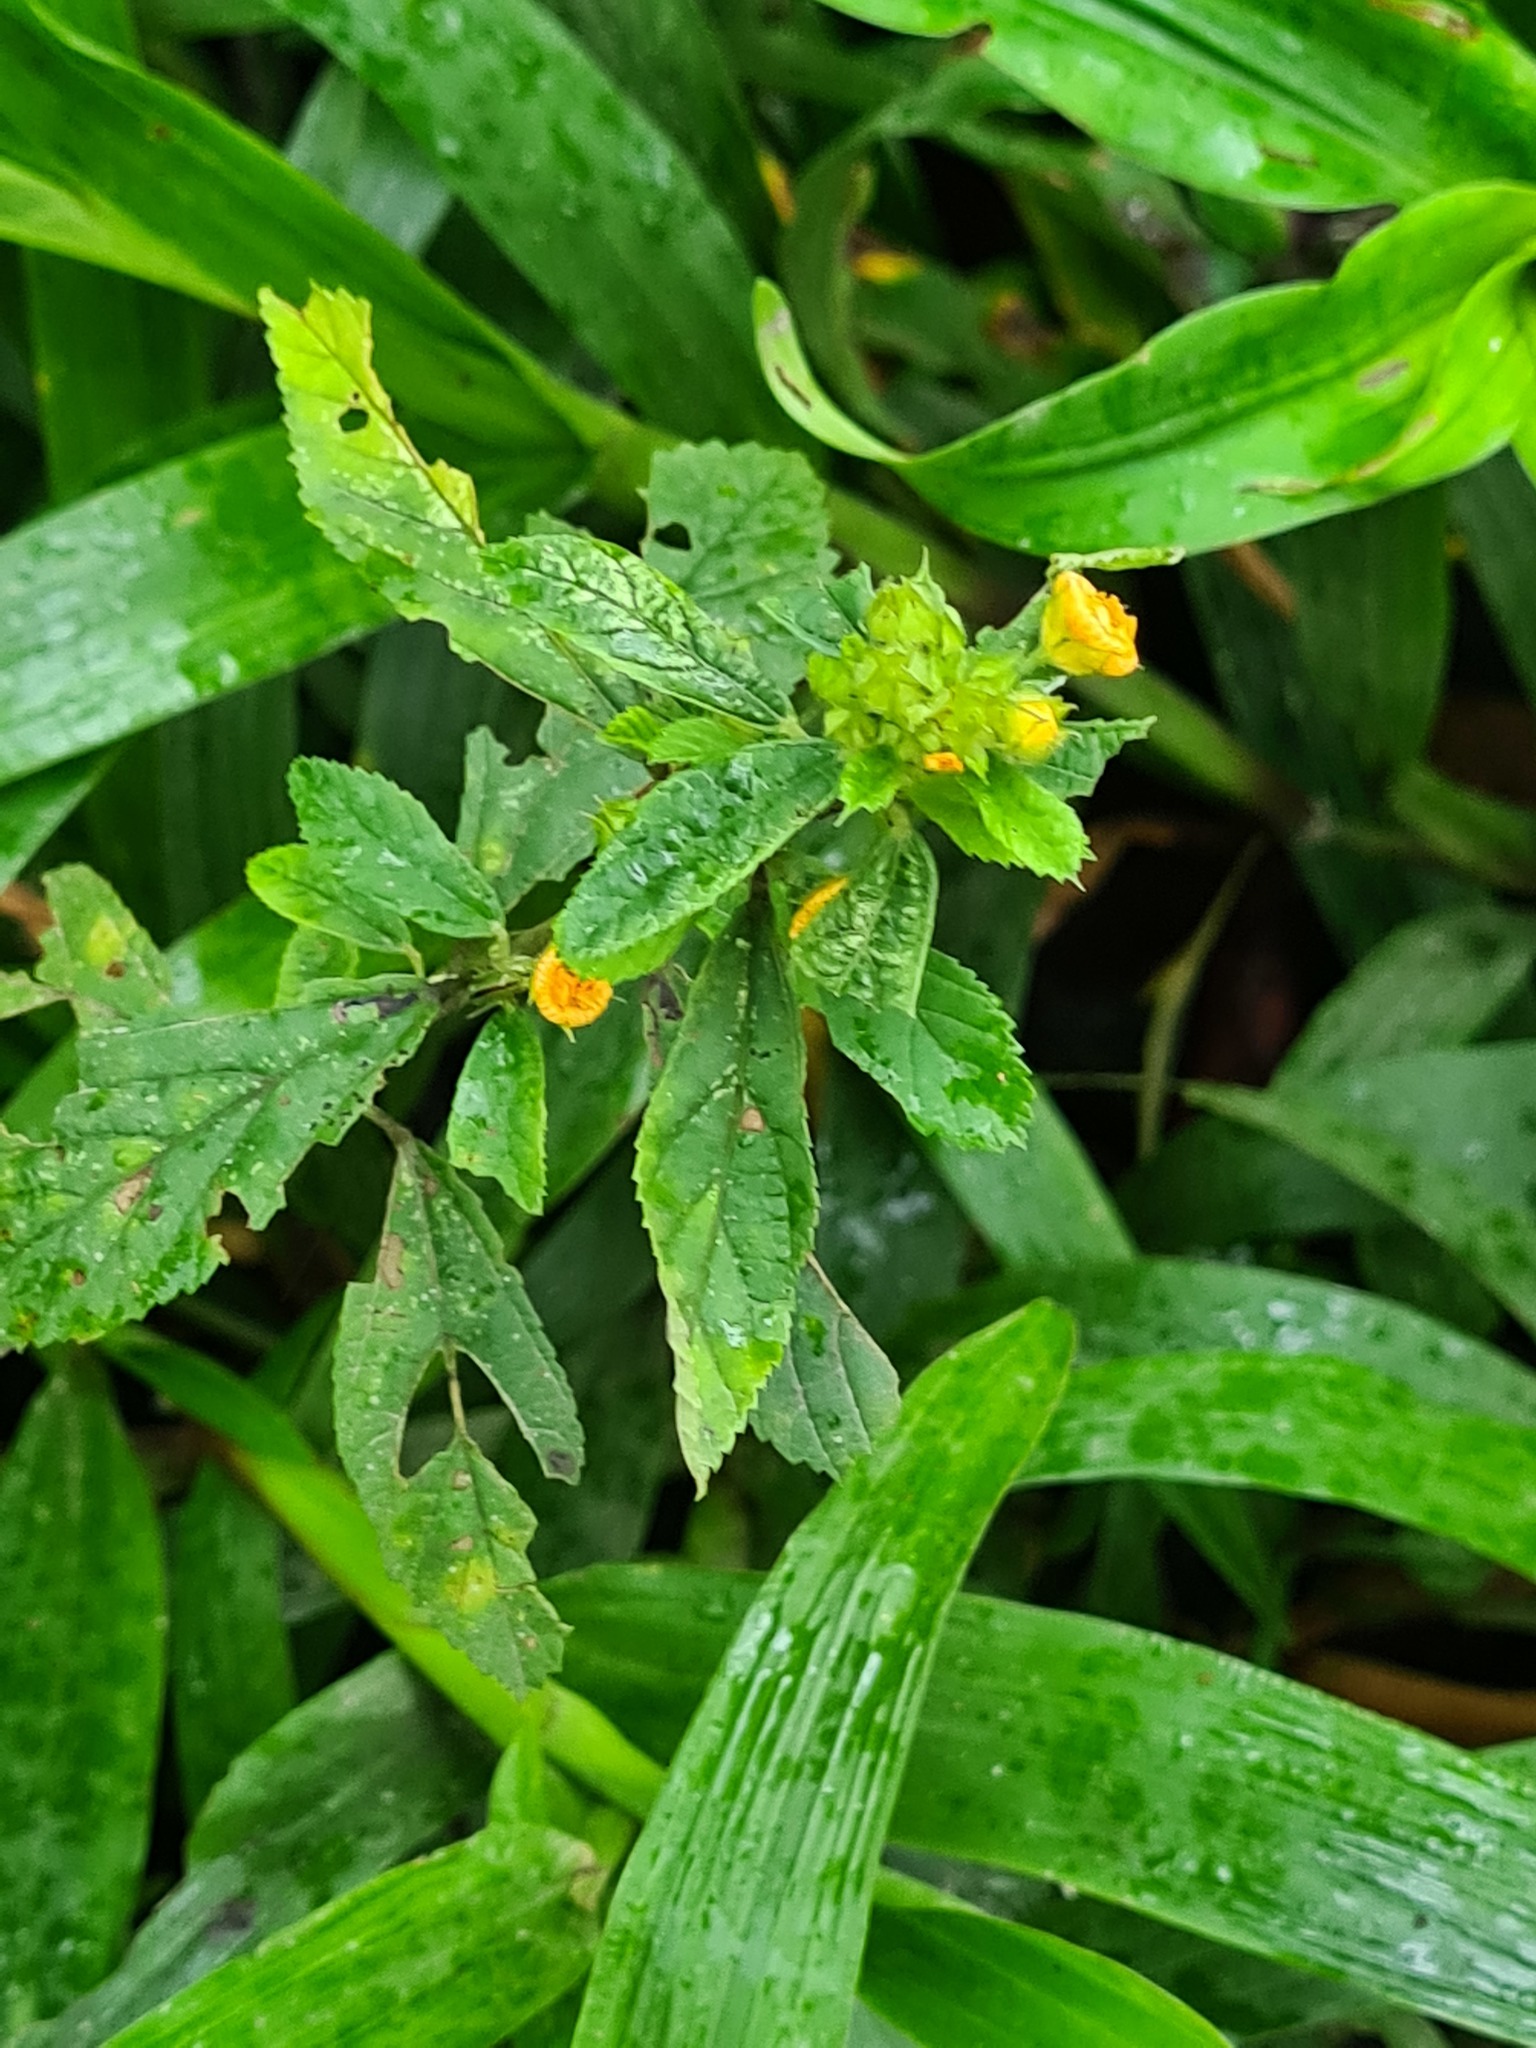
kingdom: Plantae
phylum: Tracheophyta
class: Magnoliopsida
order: Malvales
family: Malvaceae
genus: Sida
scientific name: Sida poeppigiana
